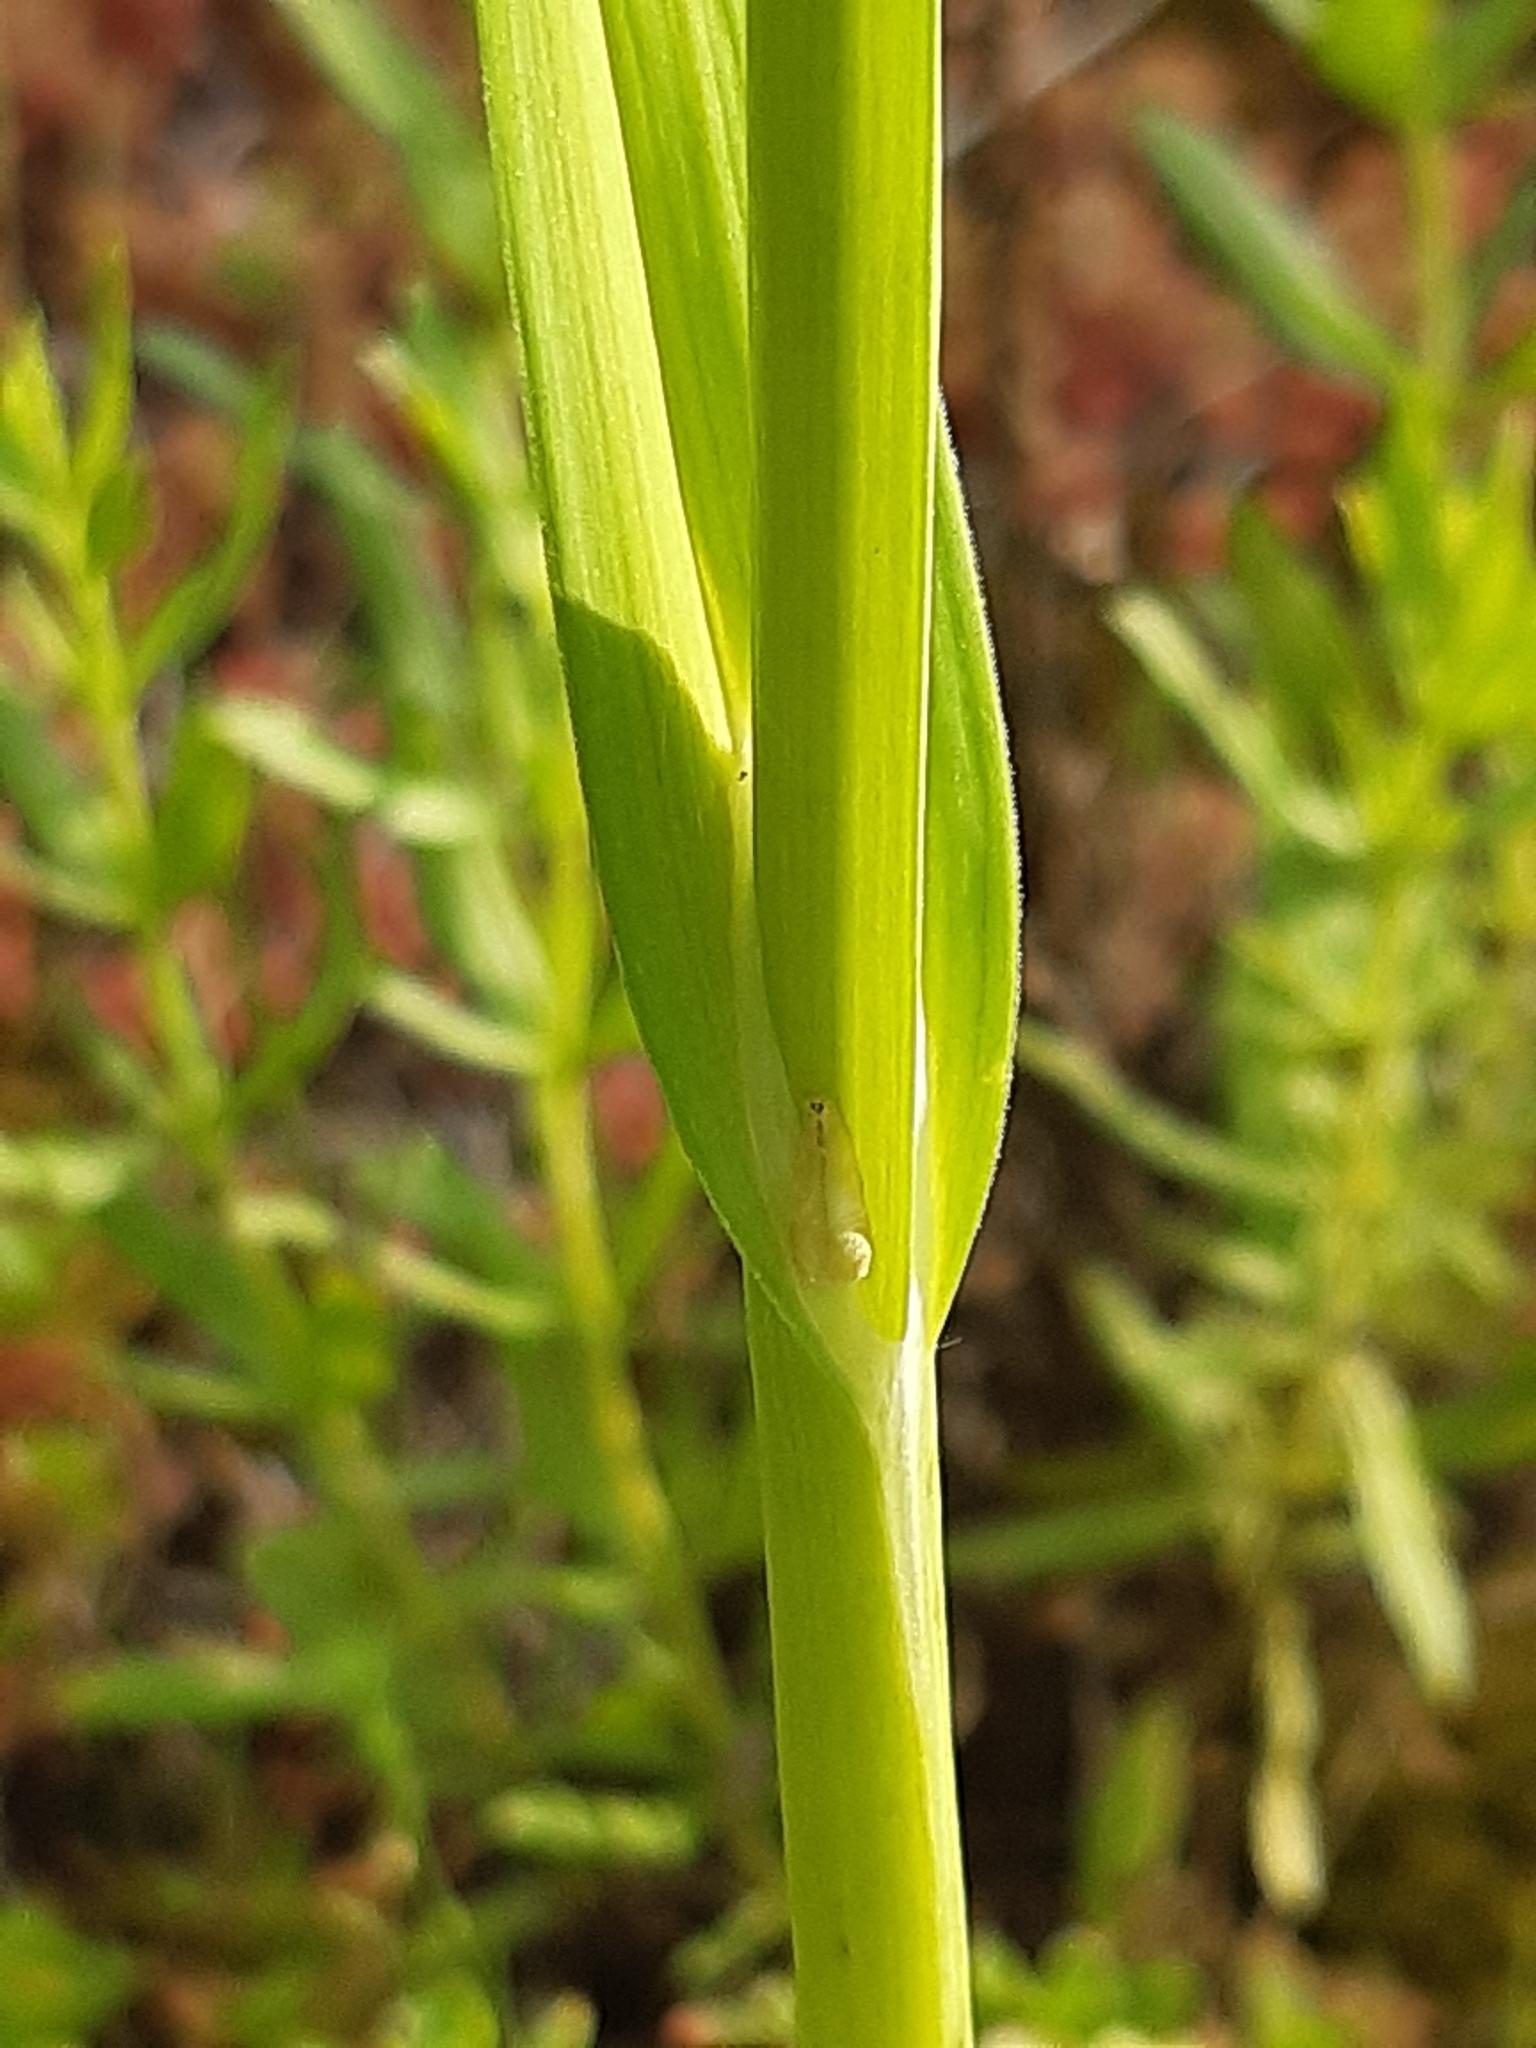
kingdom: Plantae
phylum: Tracheophyta
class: Liliopsida
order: Asparagales
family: Amaryllidaceae
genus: Allium
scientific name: Allium scorodoprasum
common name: Sand leek
